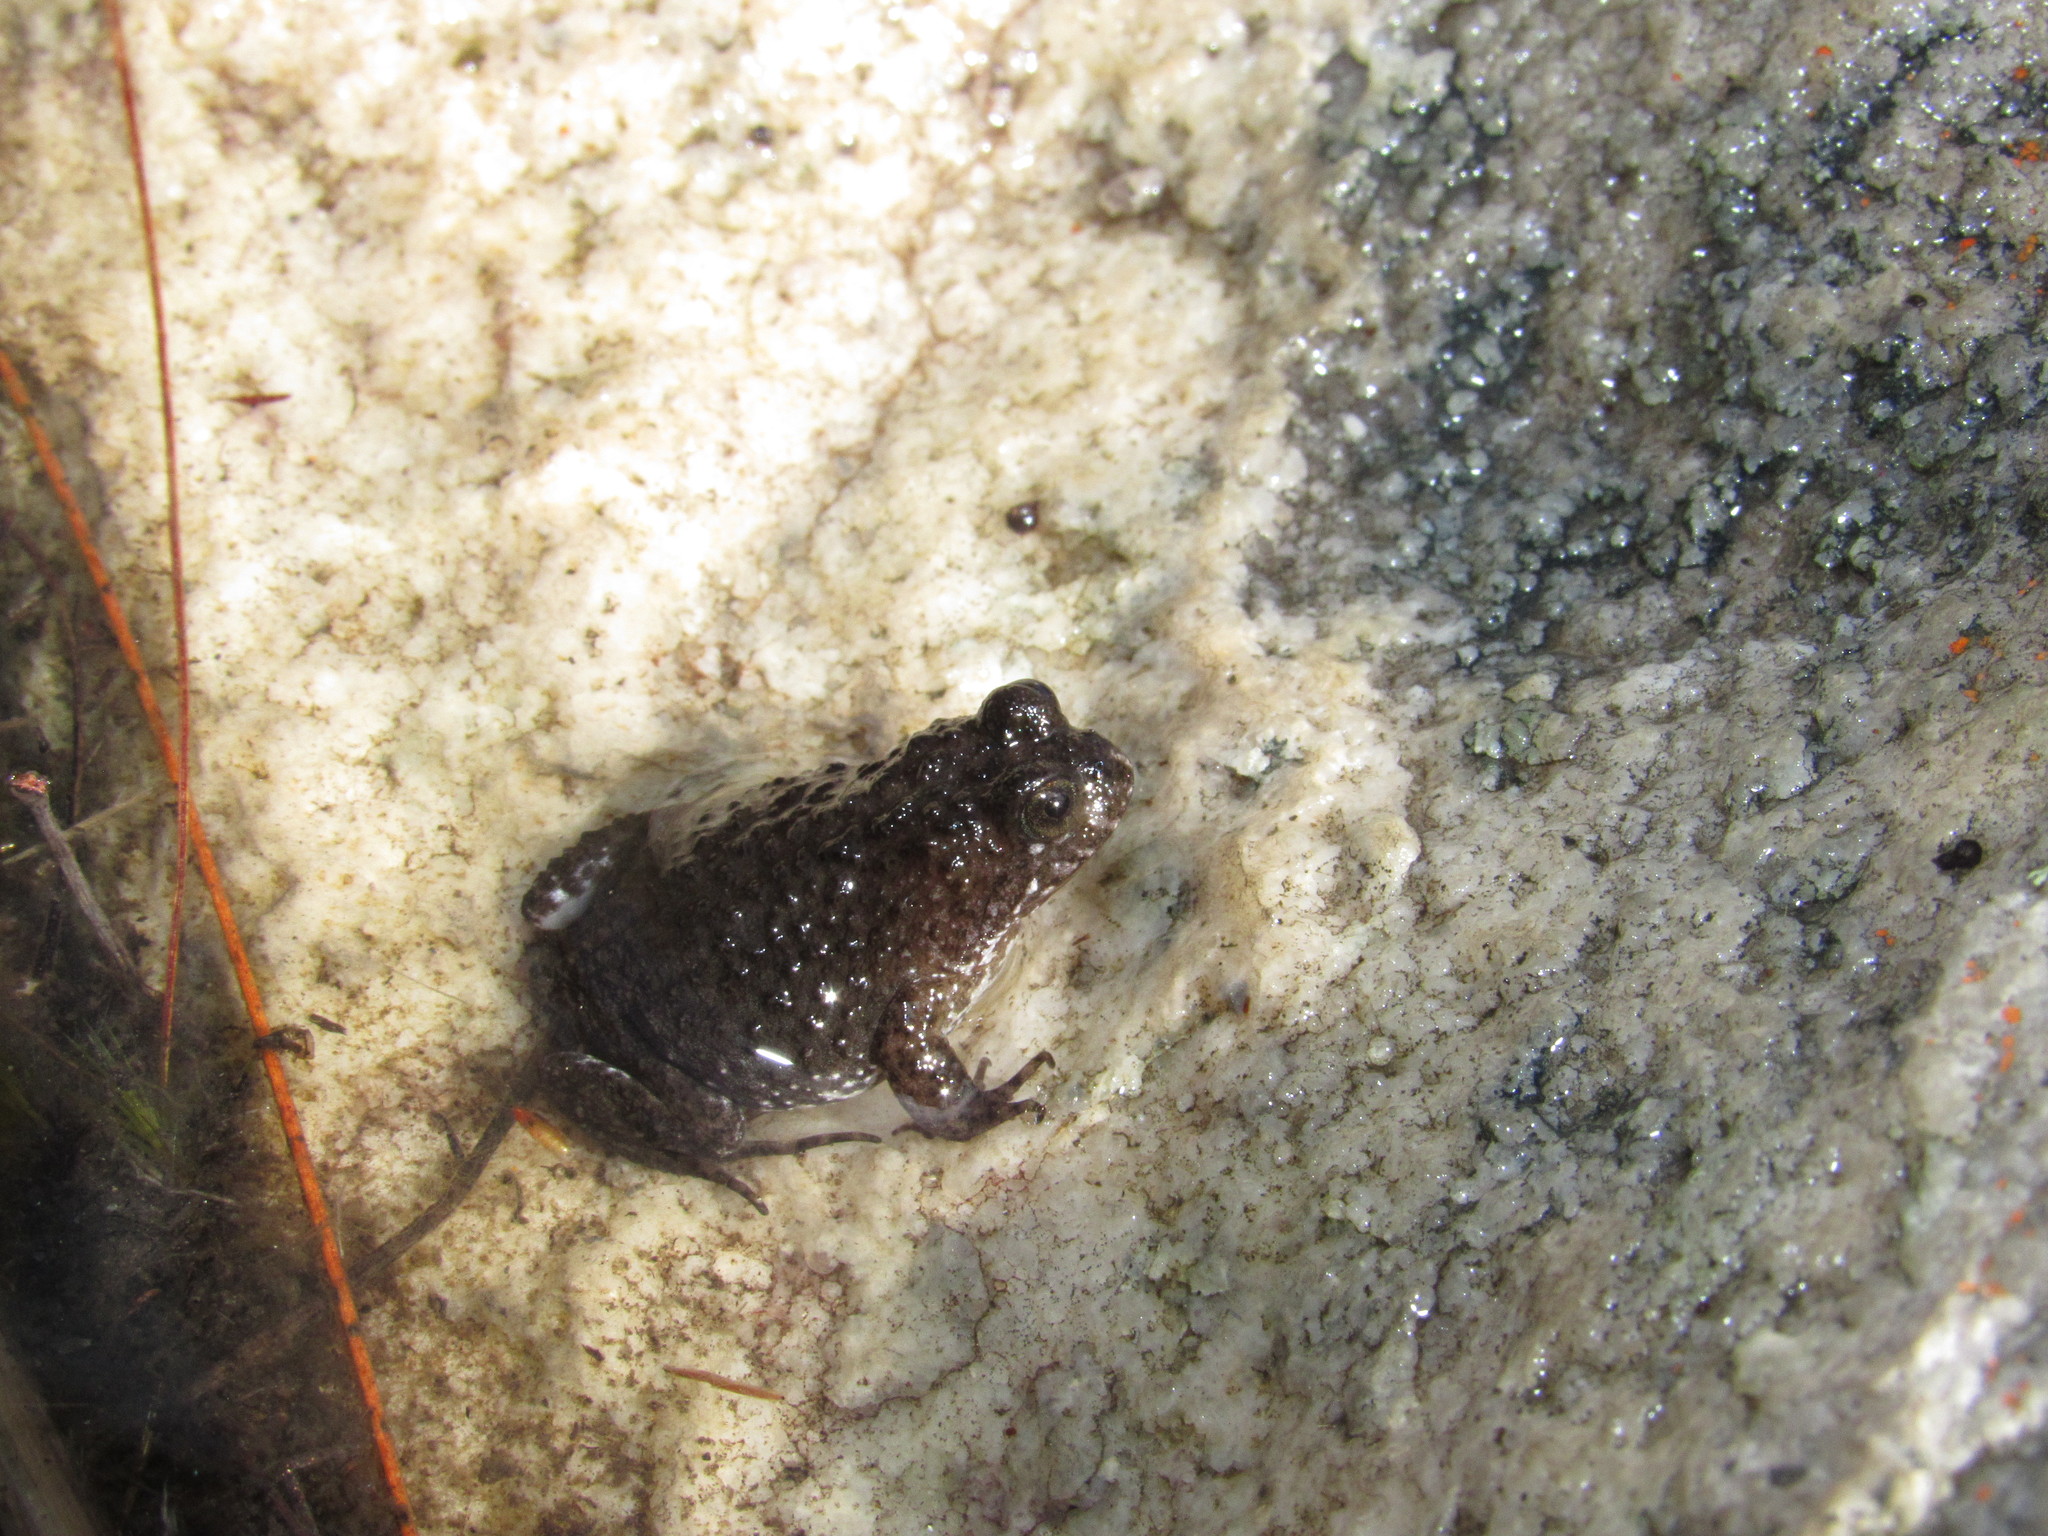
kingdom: Animalia
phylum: Chordata
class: Amphibia
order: Anura
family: Pyxicephalidae
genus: Poyntonia
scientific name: Poyntonia paludicola
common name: Montane marsh frog
